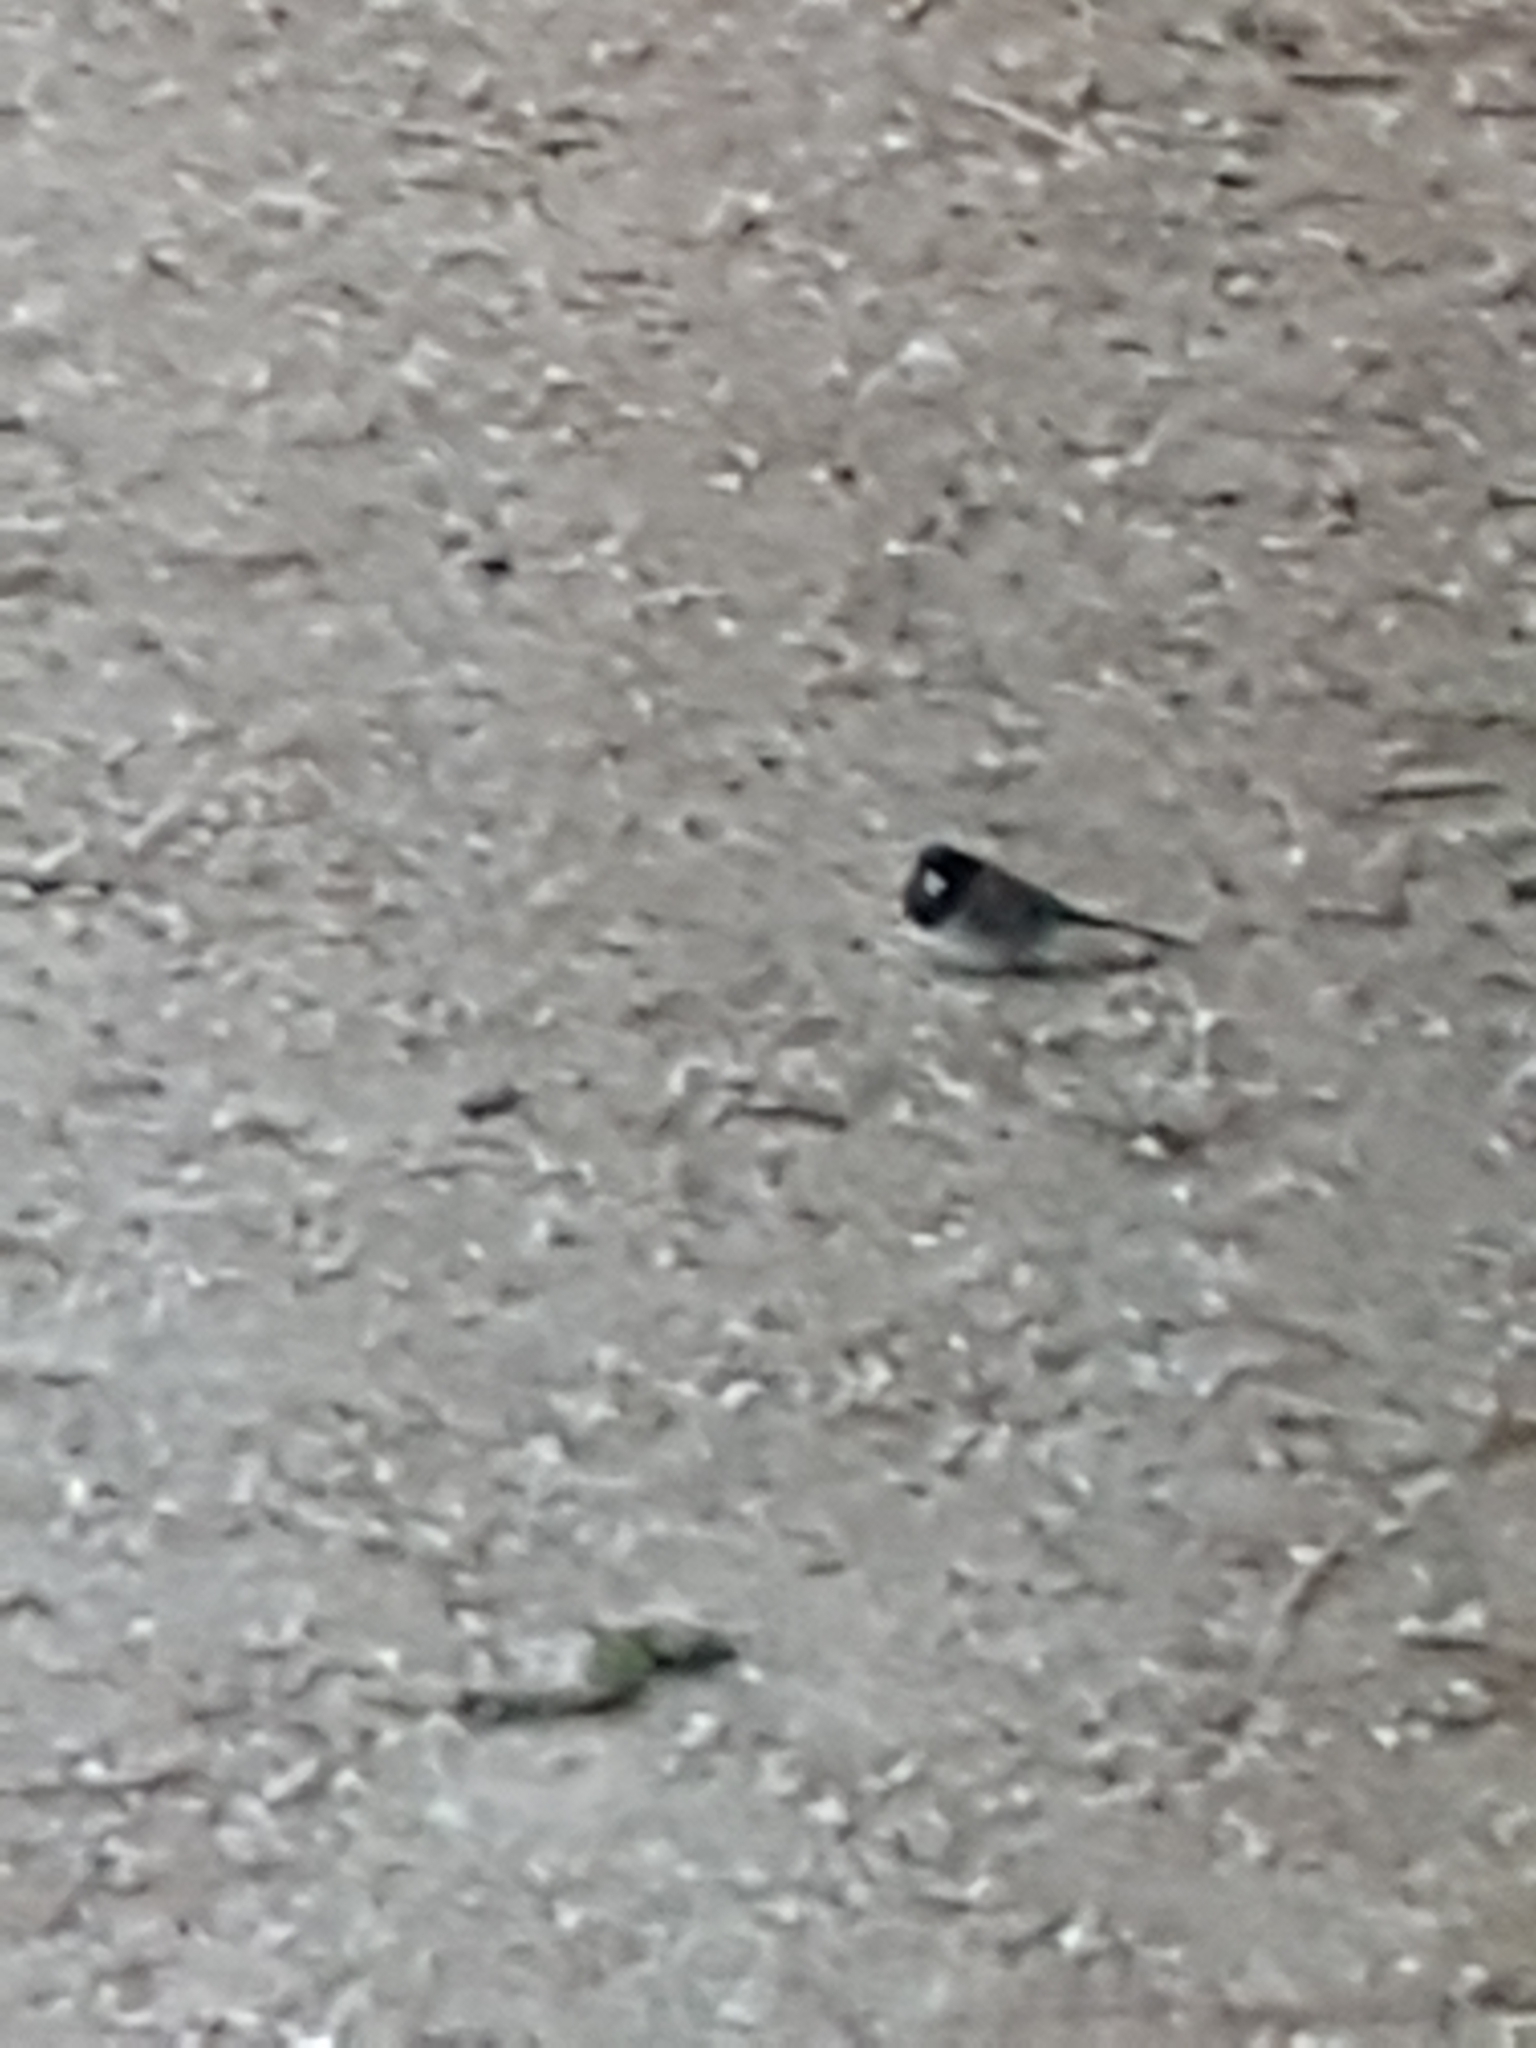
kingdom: Animalia
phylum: Chordata
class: Aves
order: Passeriformes
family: Passerellidae
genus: Junco
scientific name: Junco hyemalis
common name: Dark-eyed junco
